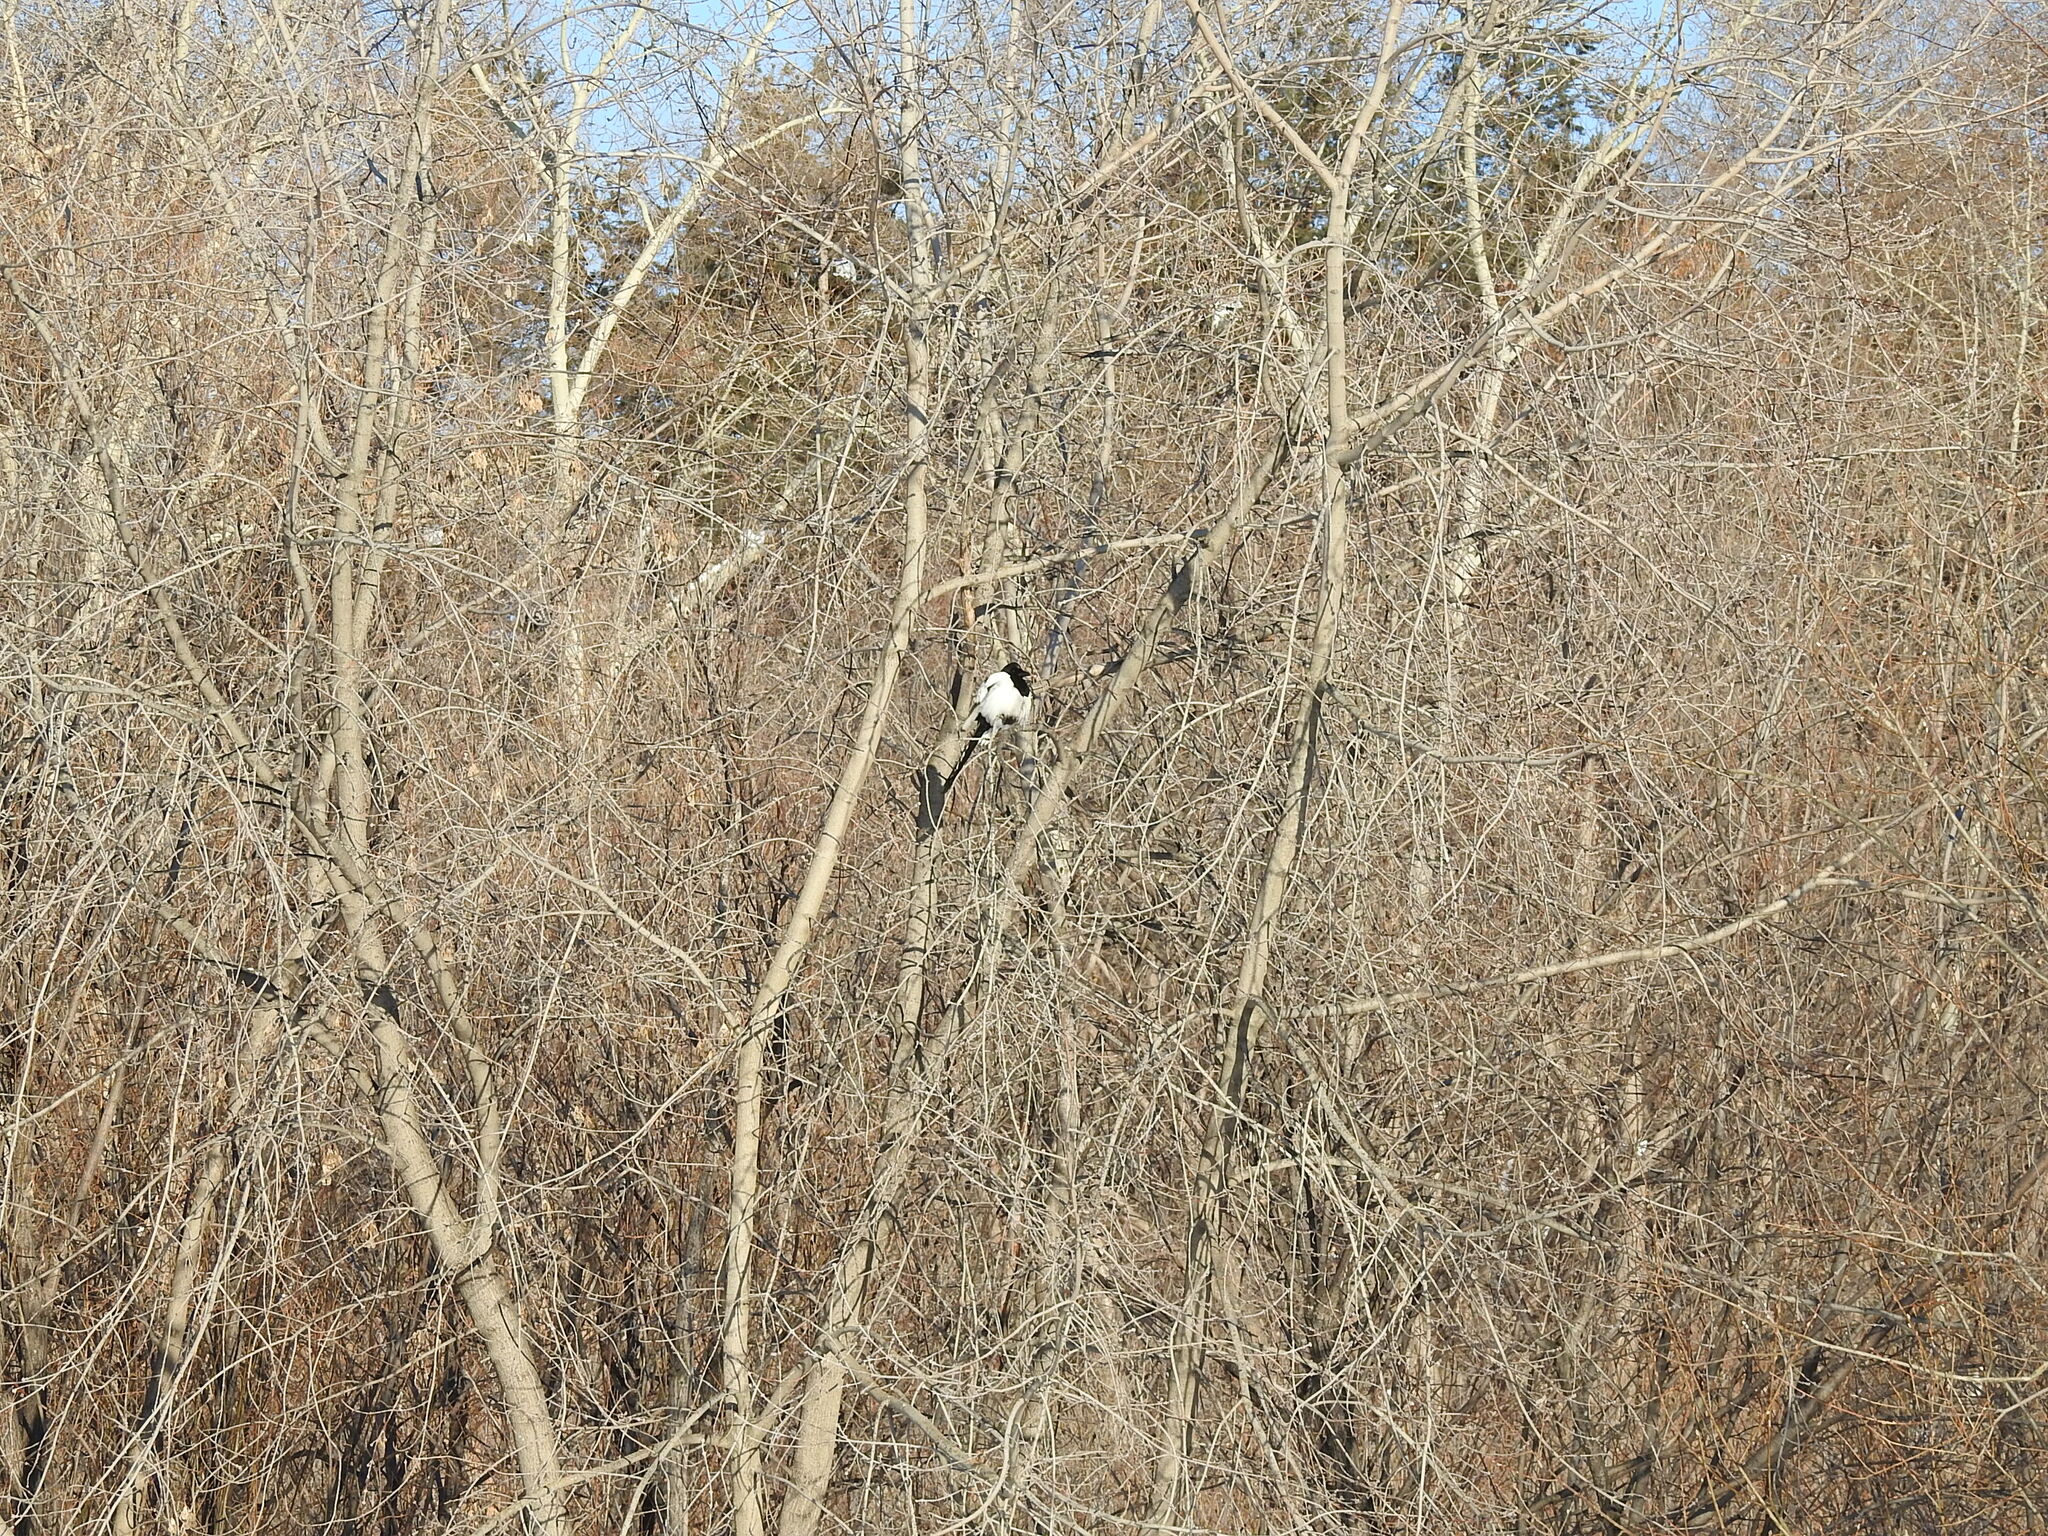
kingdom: Animalia
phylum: Chordata
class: Aves
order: Passeriformes
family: Corvidae
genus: Pica
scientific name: Pica pica
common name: Eurasian magpie
